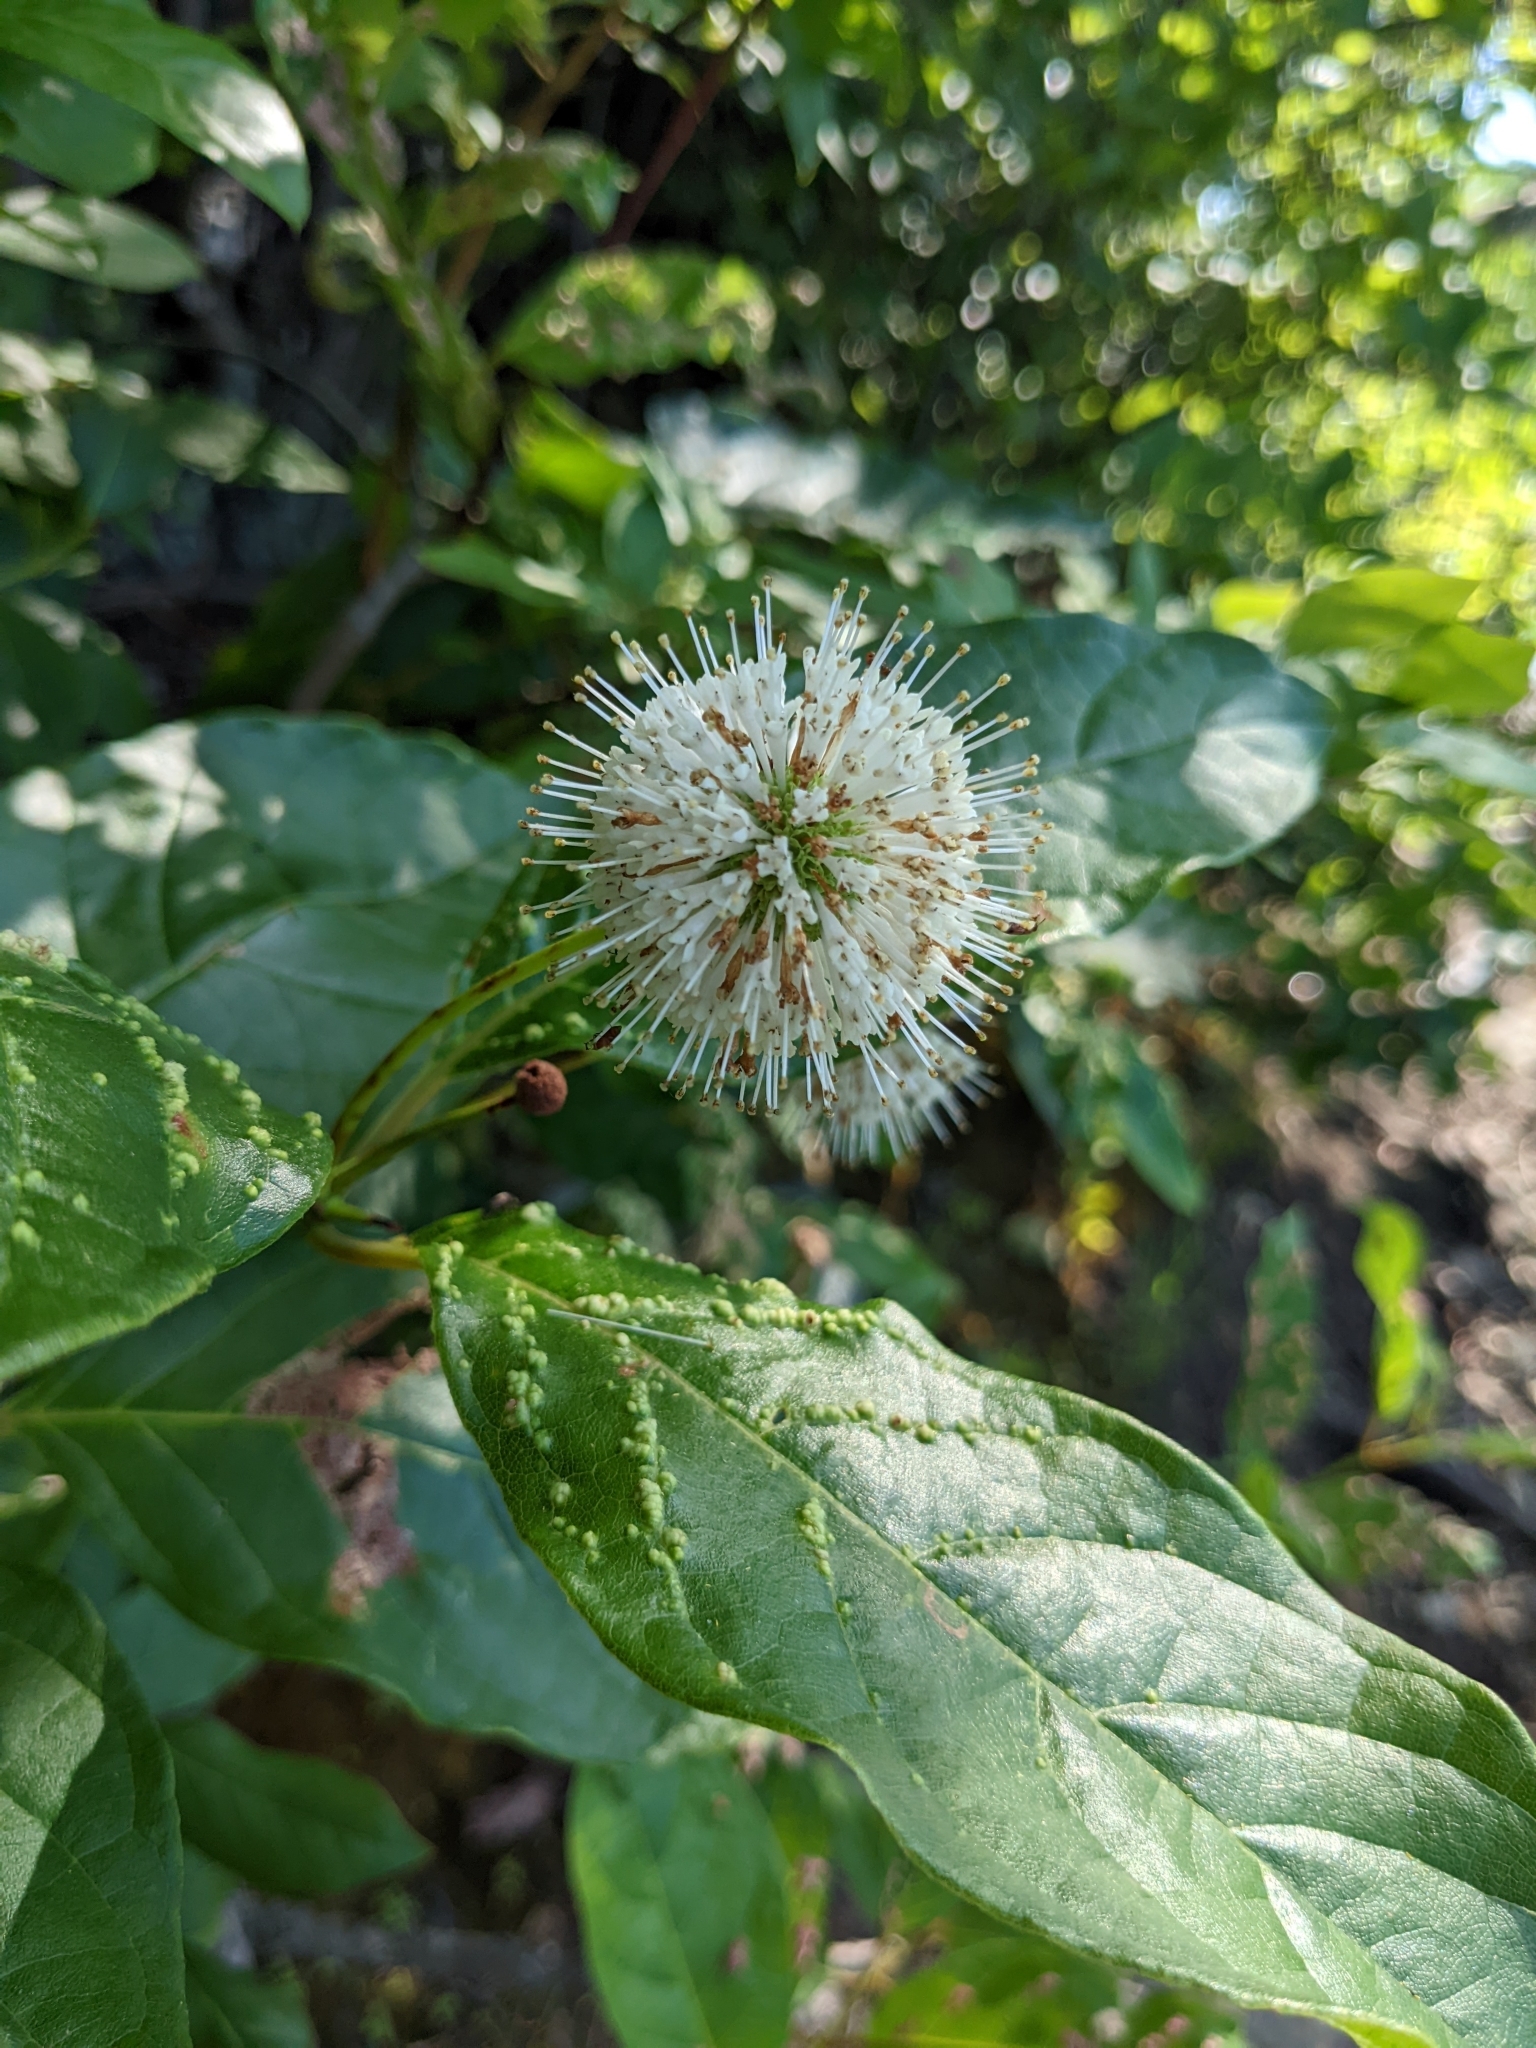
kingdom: Plantae
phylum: Tracheophyta
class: Magnoliopsida
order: Gentianales
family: Rubiaceae
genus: Cephalanthus
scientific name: Cephalanthus occidentalis
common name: Button-willow
